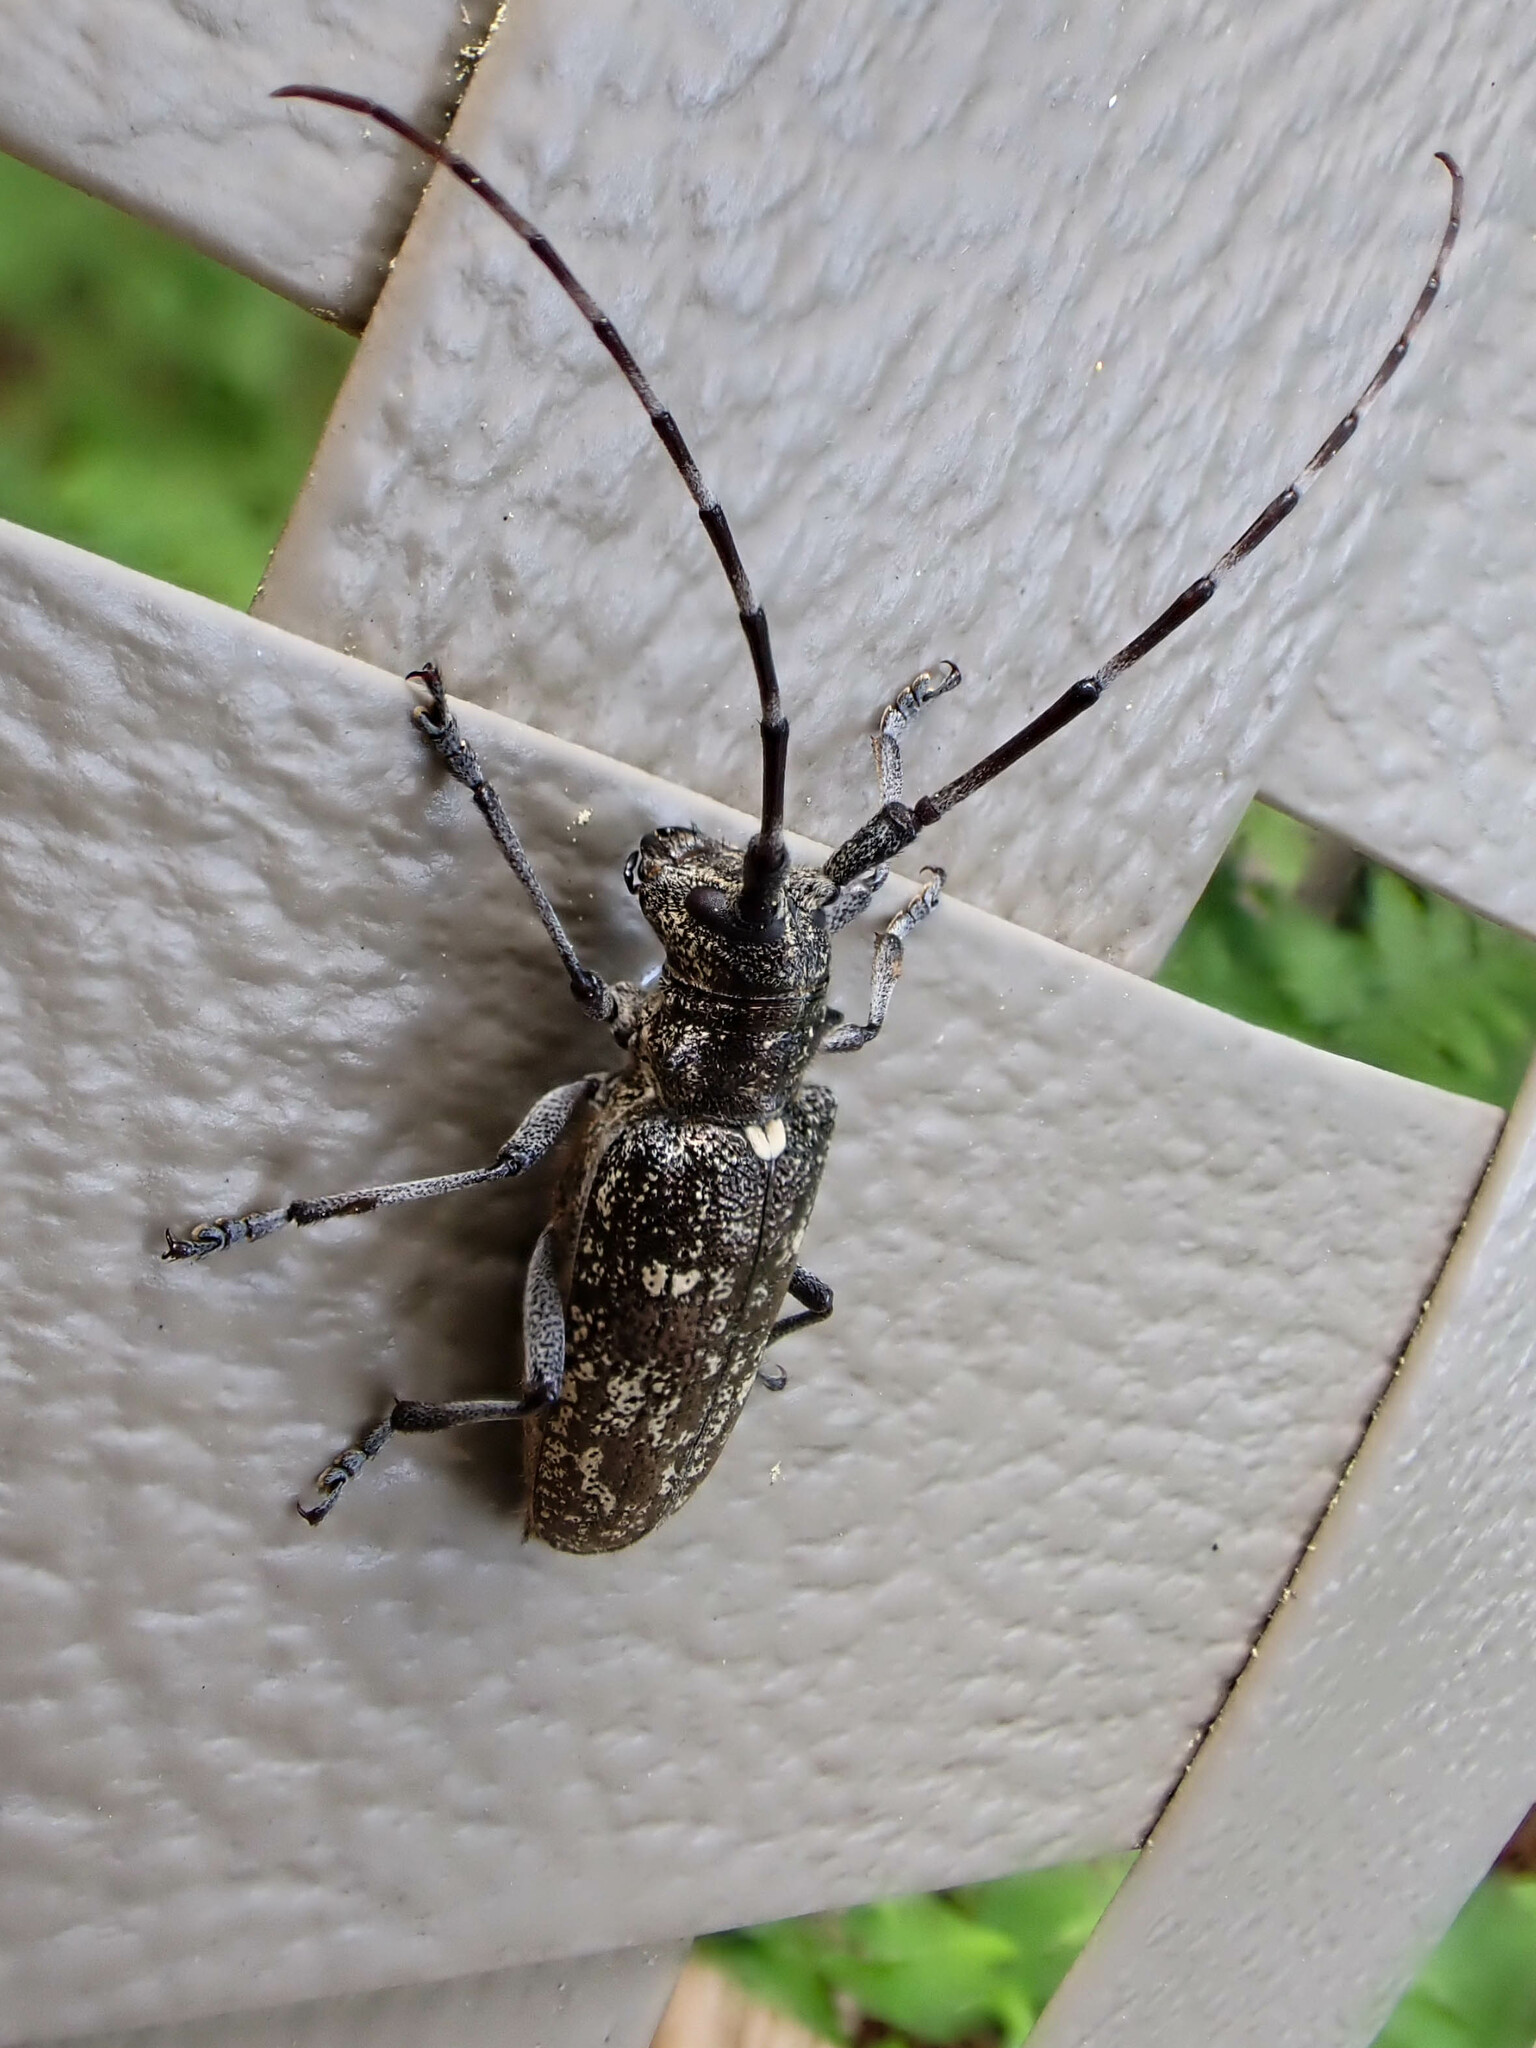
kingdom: Animalia
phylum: Arthropoda
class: Insecta
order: Coleoptera
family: Cerambycidae
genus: Monochamus
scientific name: Monochamus scutellatus
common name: White-spotted sawyer beetle
